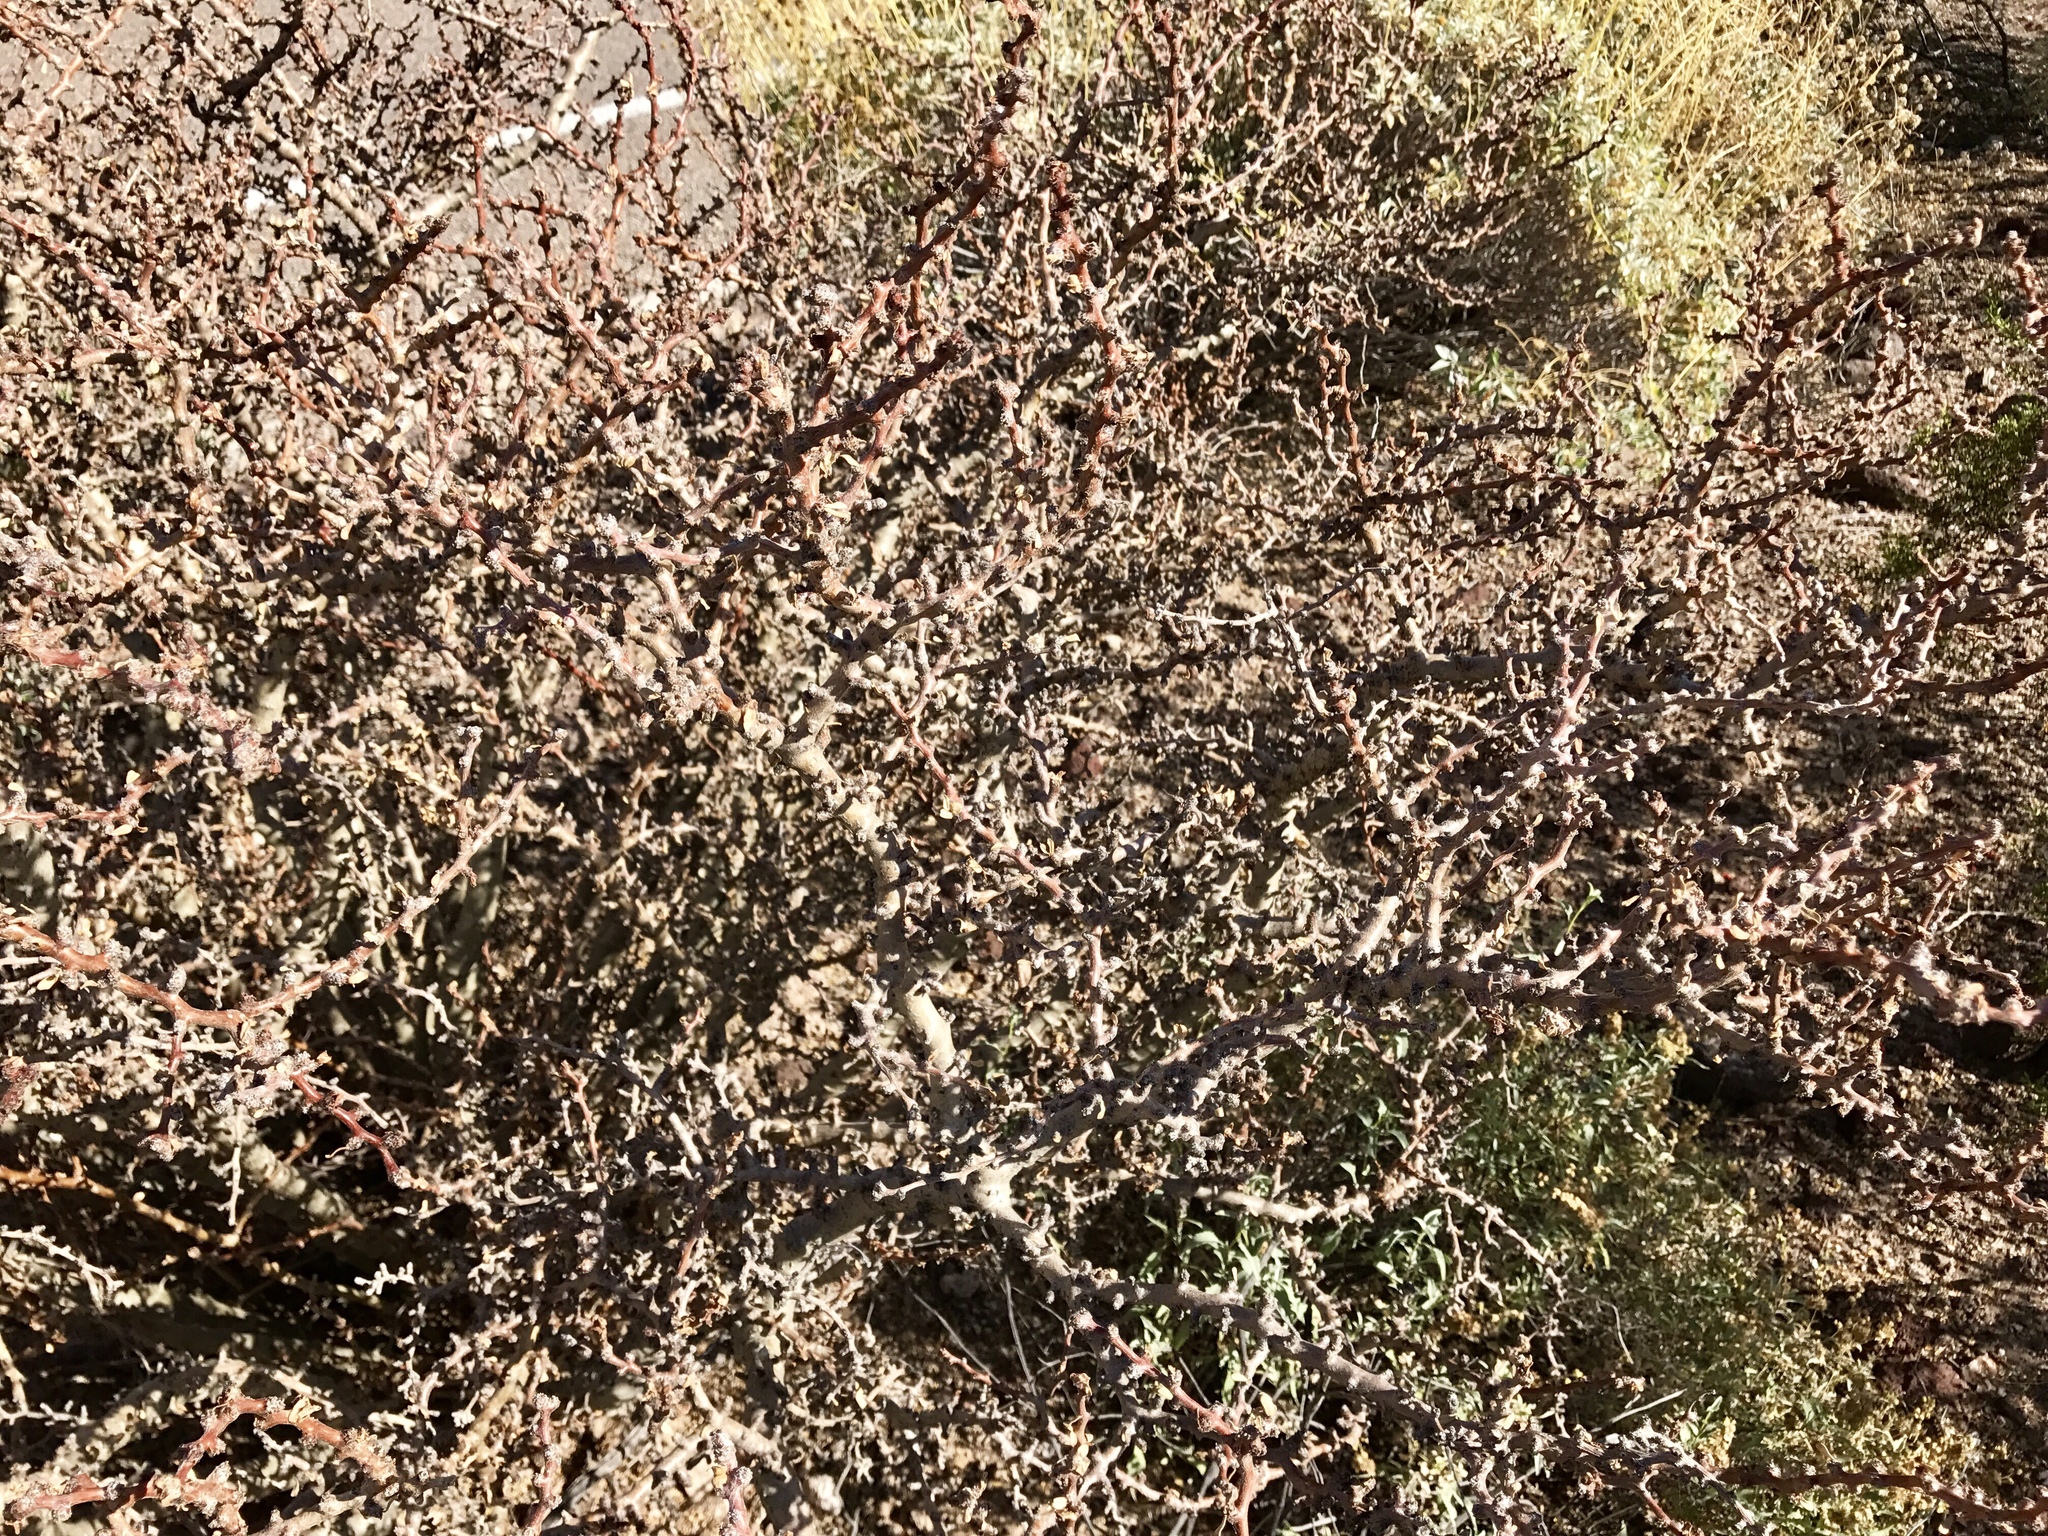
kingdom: Plantae
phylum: Tracheophyta
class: Magnoliopsida
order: Malpighiales
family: Euphorbiaceae
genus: Jatropha
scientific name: Jatropha cuneata
